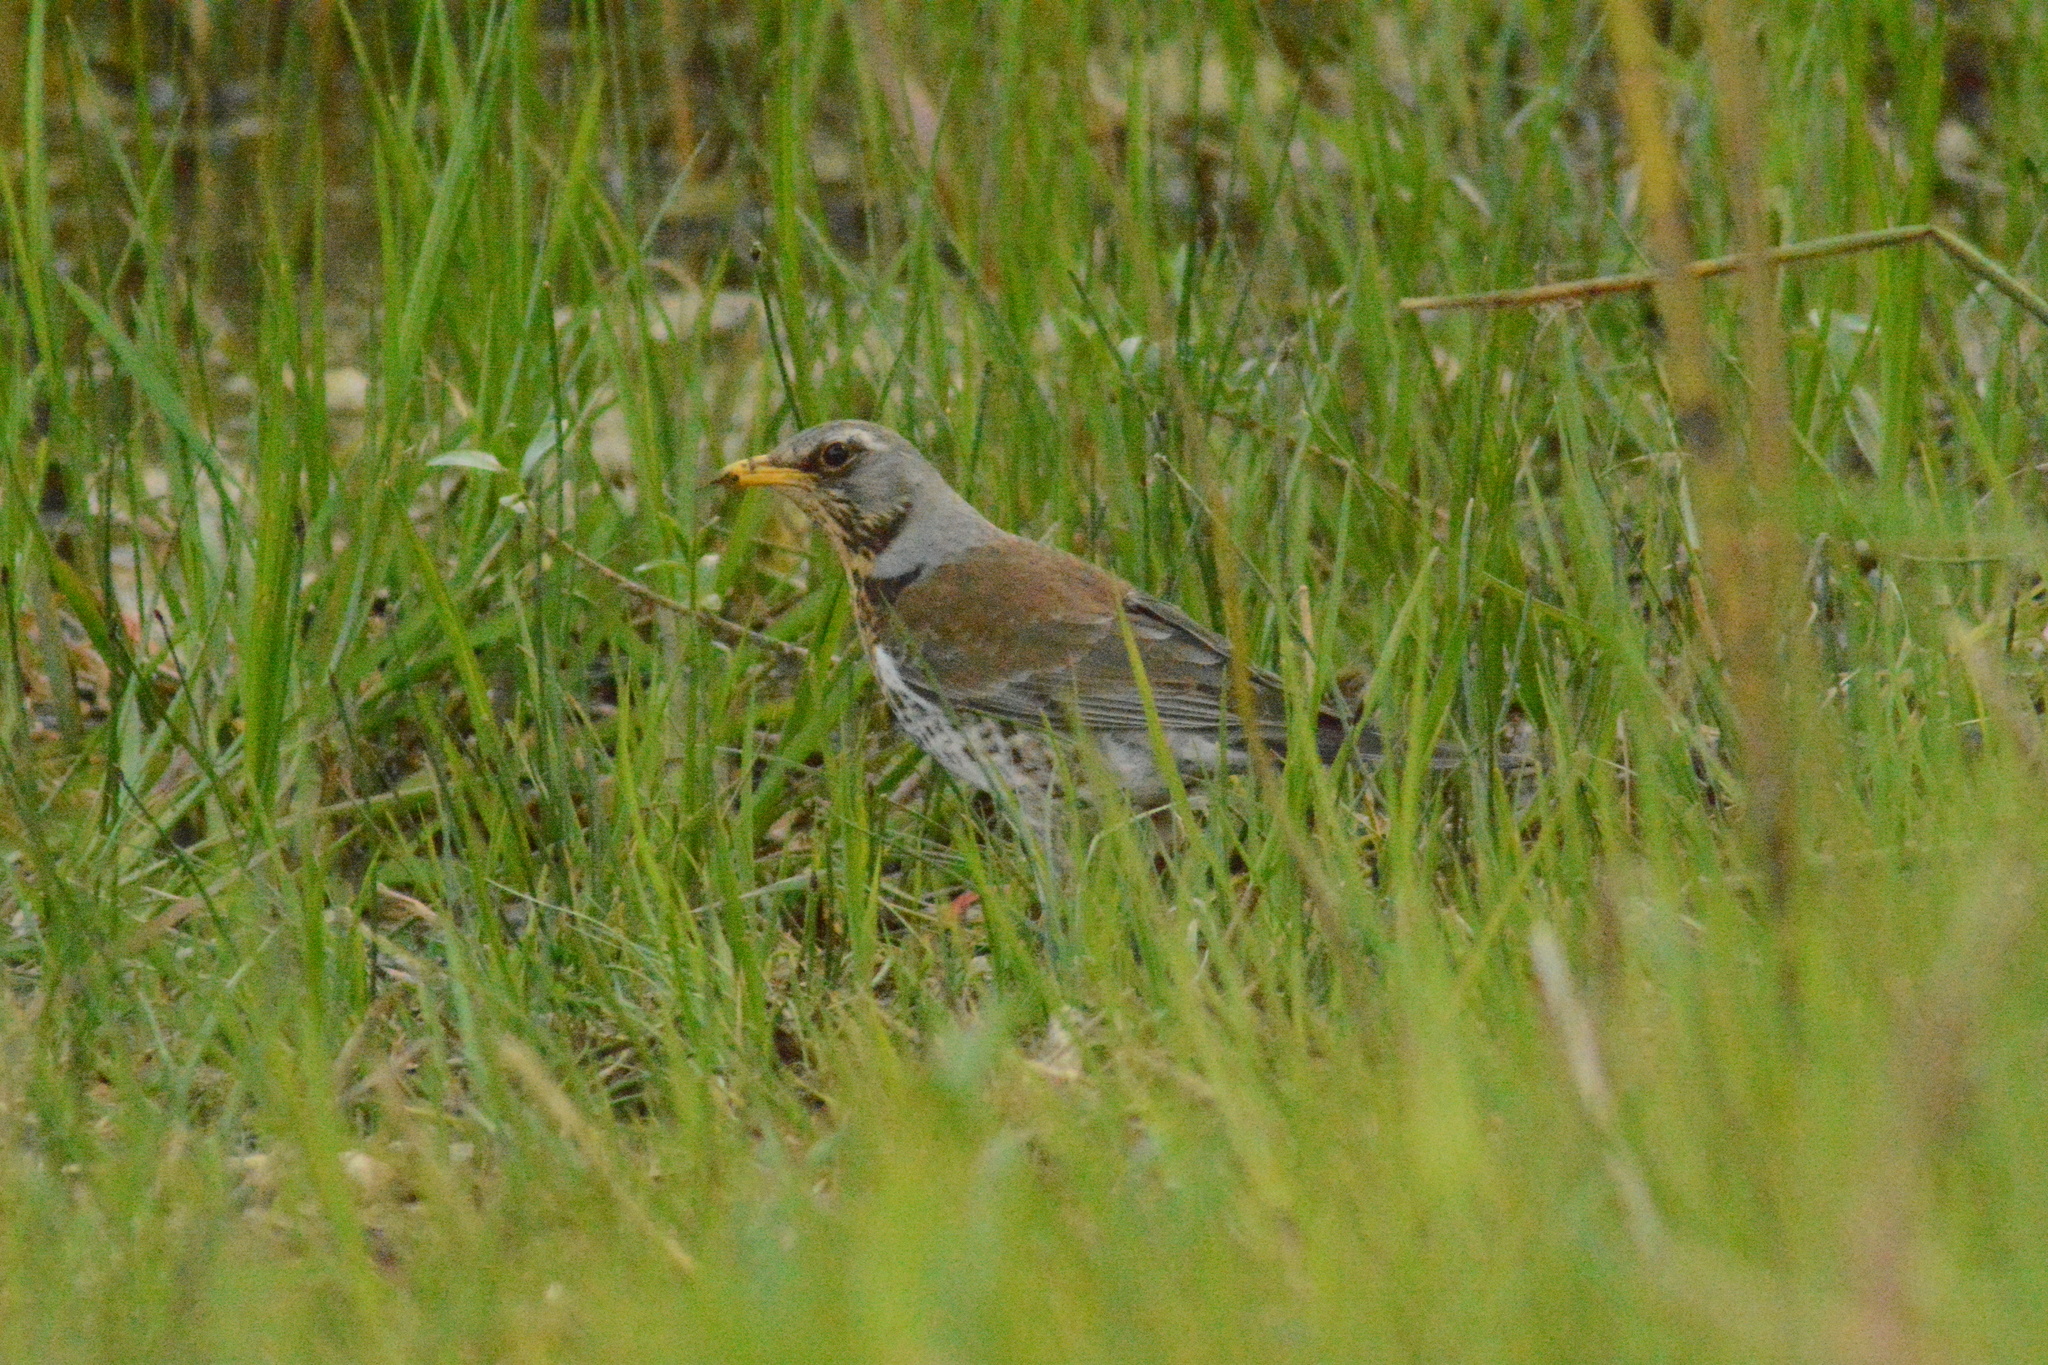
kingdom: Animalia
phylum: Chordata
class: Aves
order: Passeriformes
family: Turdidae
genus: Turdus
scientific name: Turdus pilaris
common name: Fieldfare
